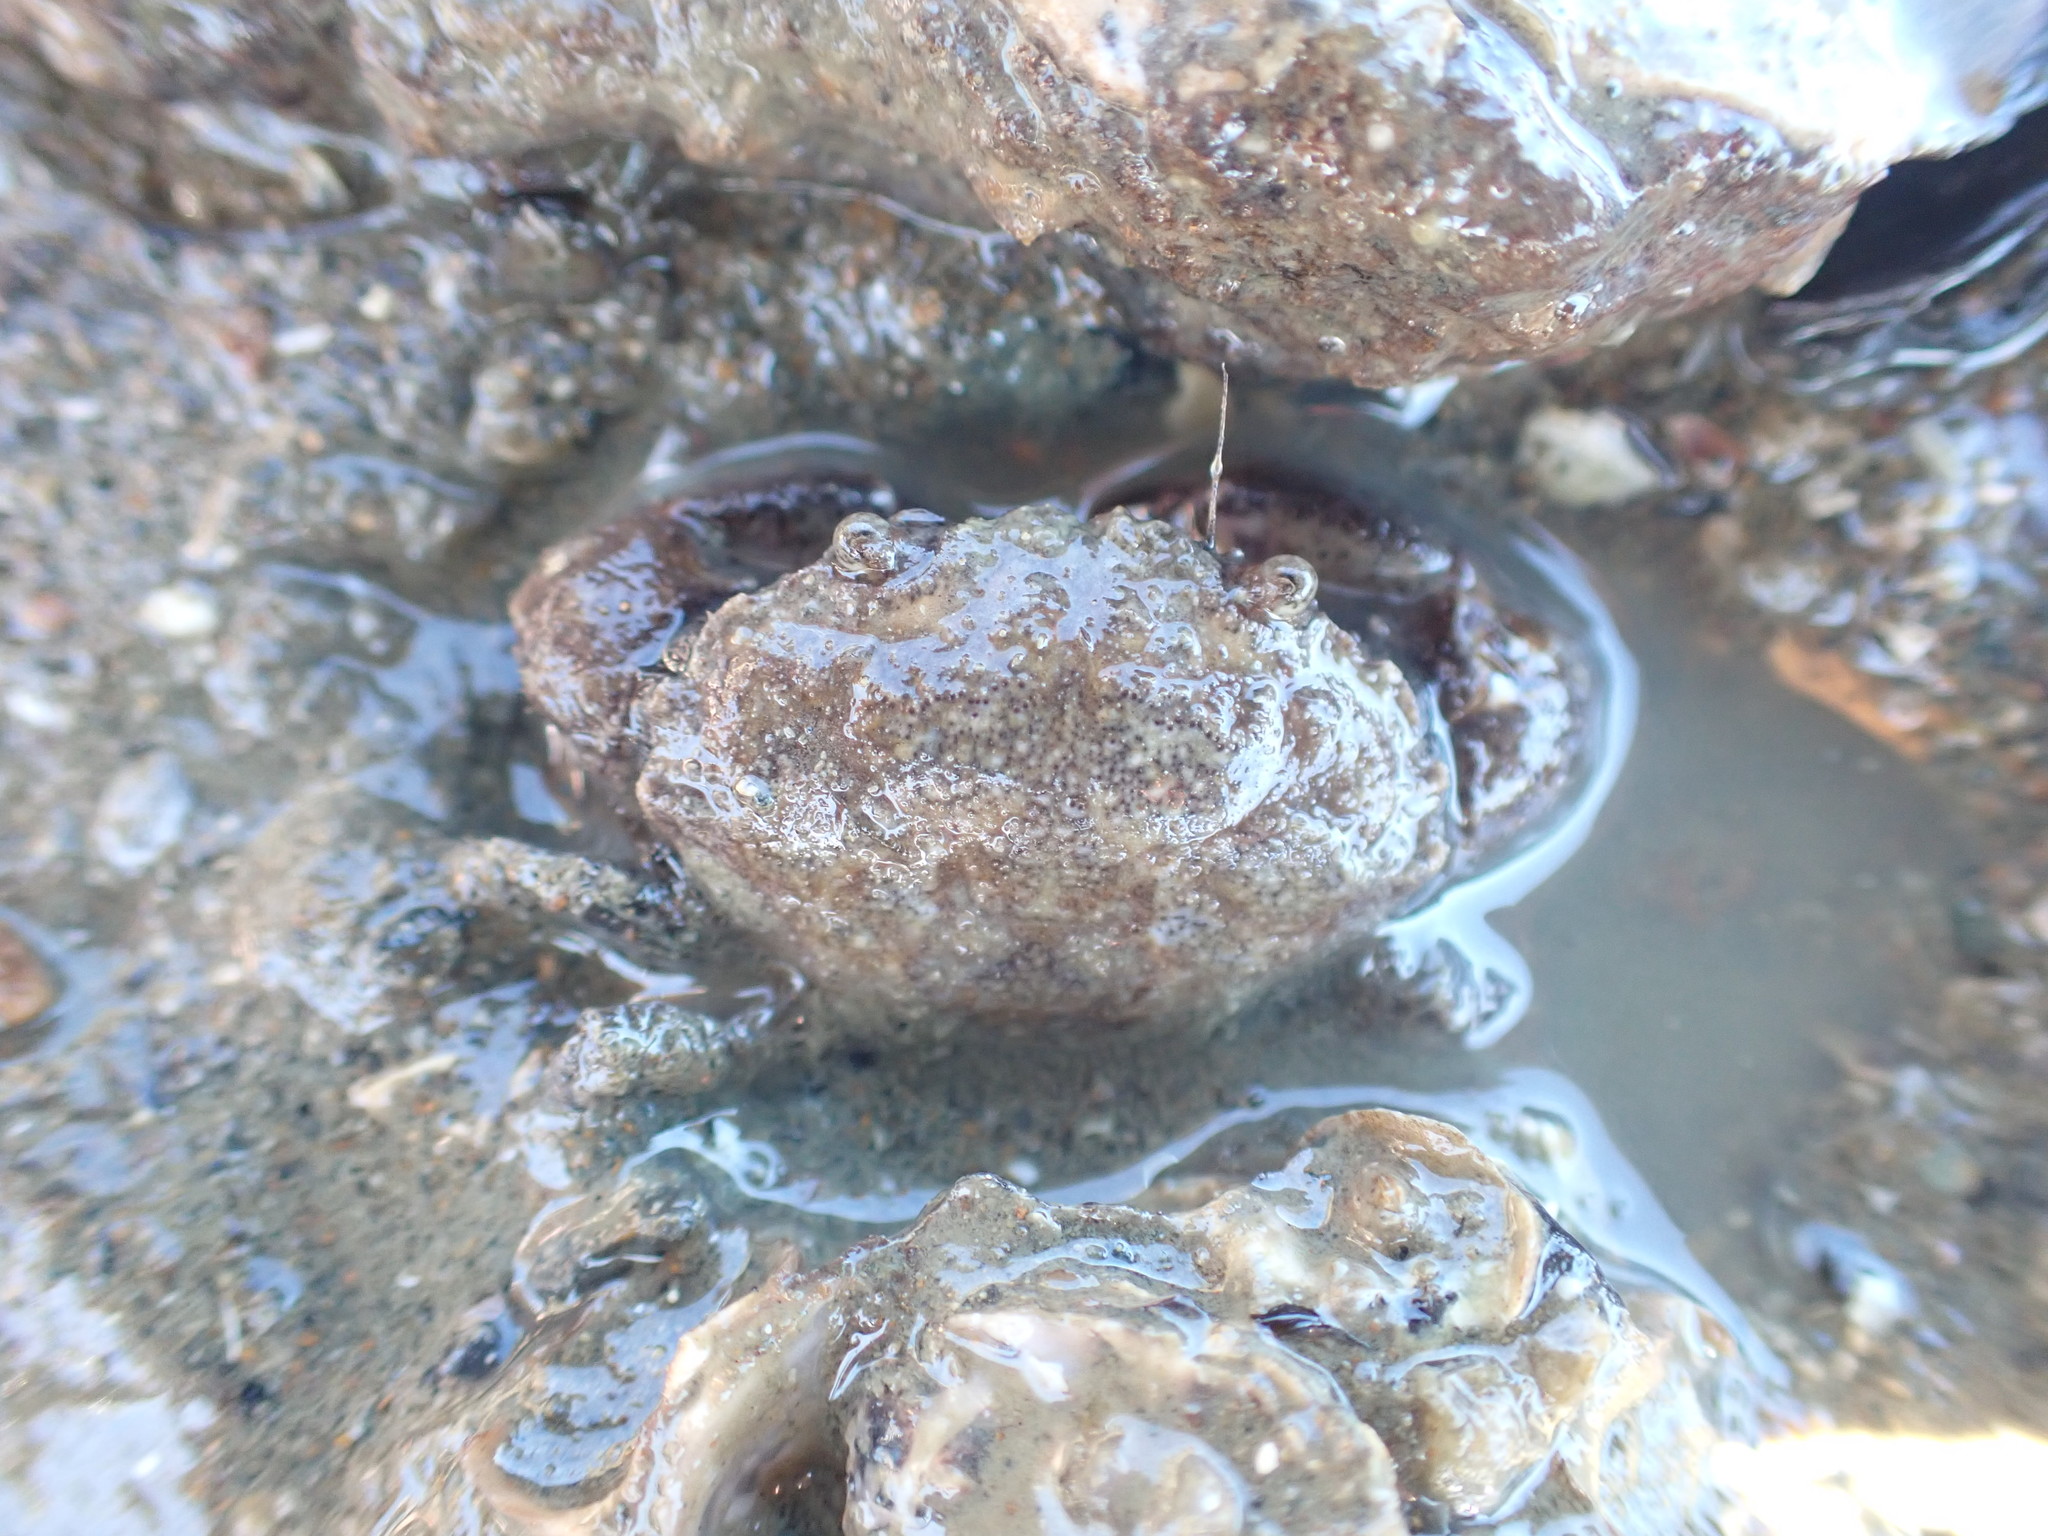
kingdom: Animalia
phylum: Arthropoda
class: Malacostraca
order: Decapoda
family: Pilumnidae
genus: Pilumnopeus
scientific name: Pilumnopeus serratifrons
